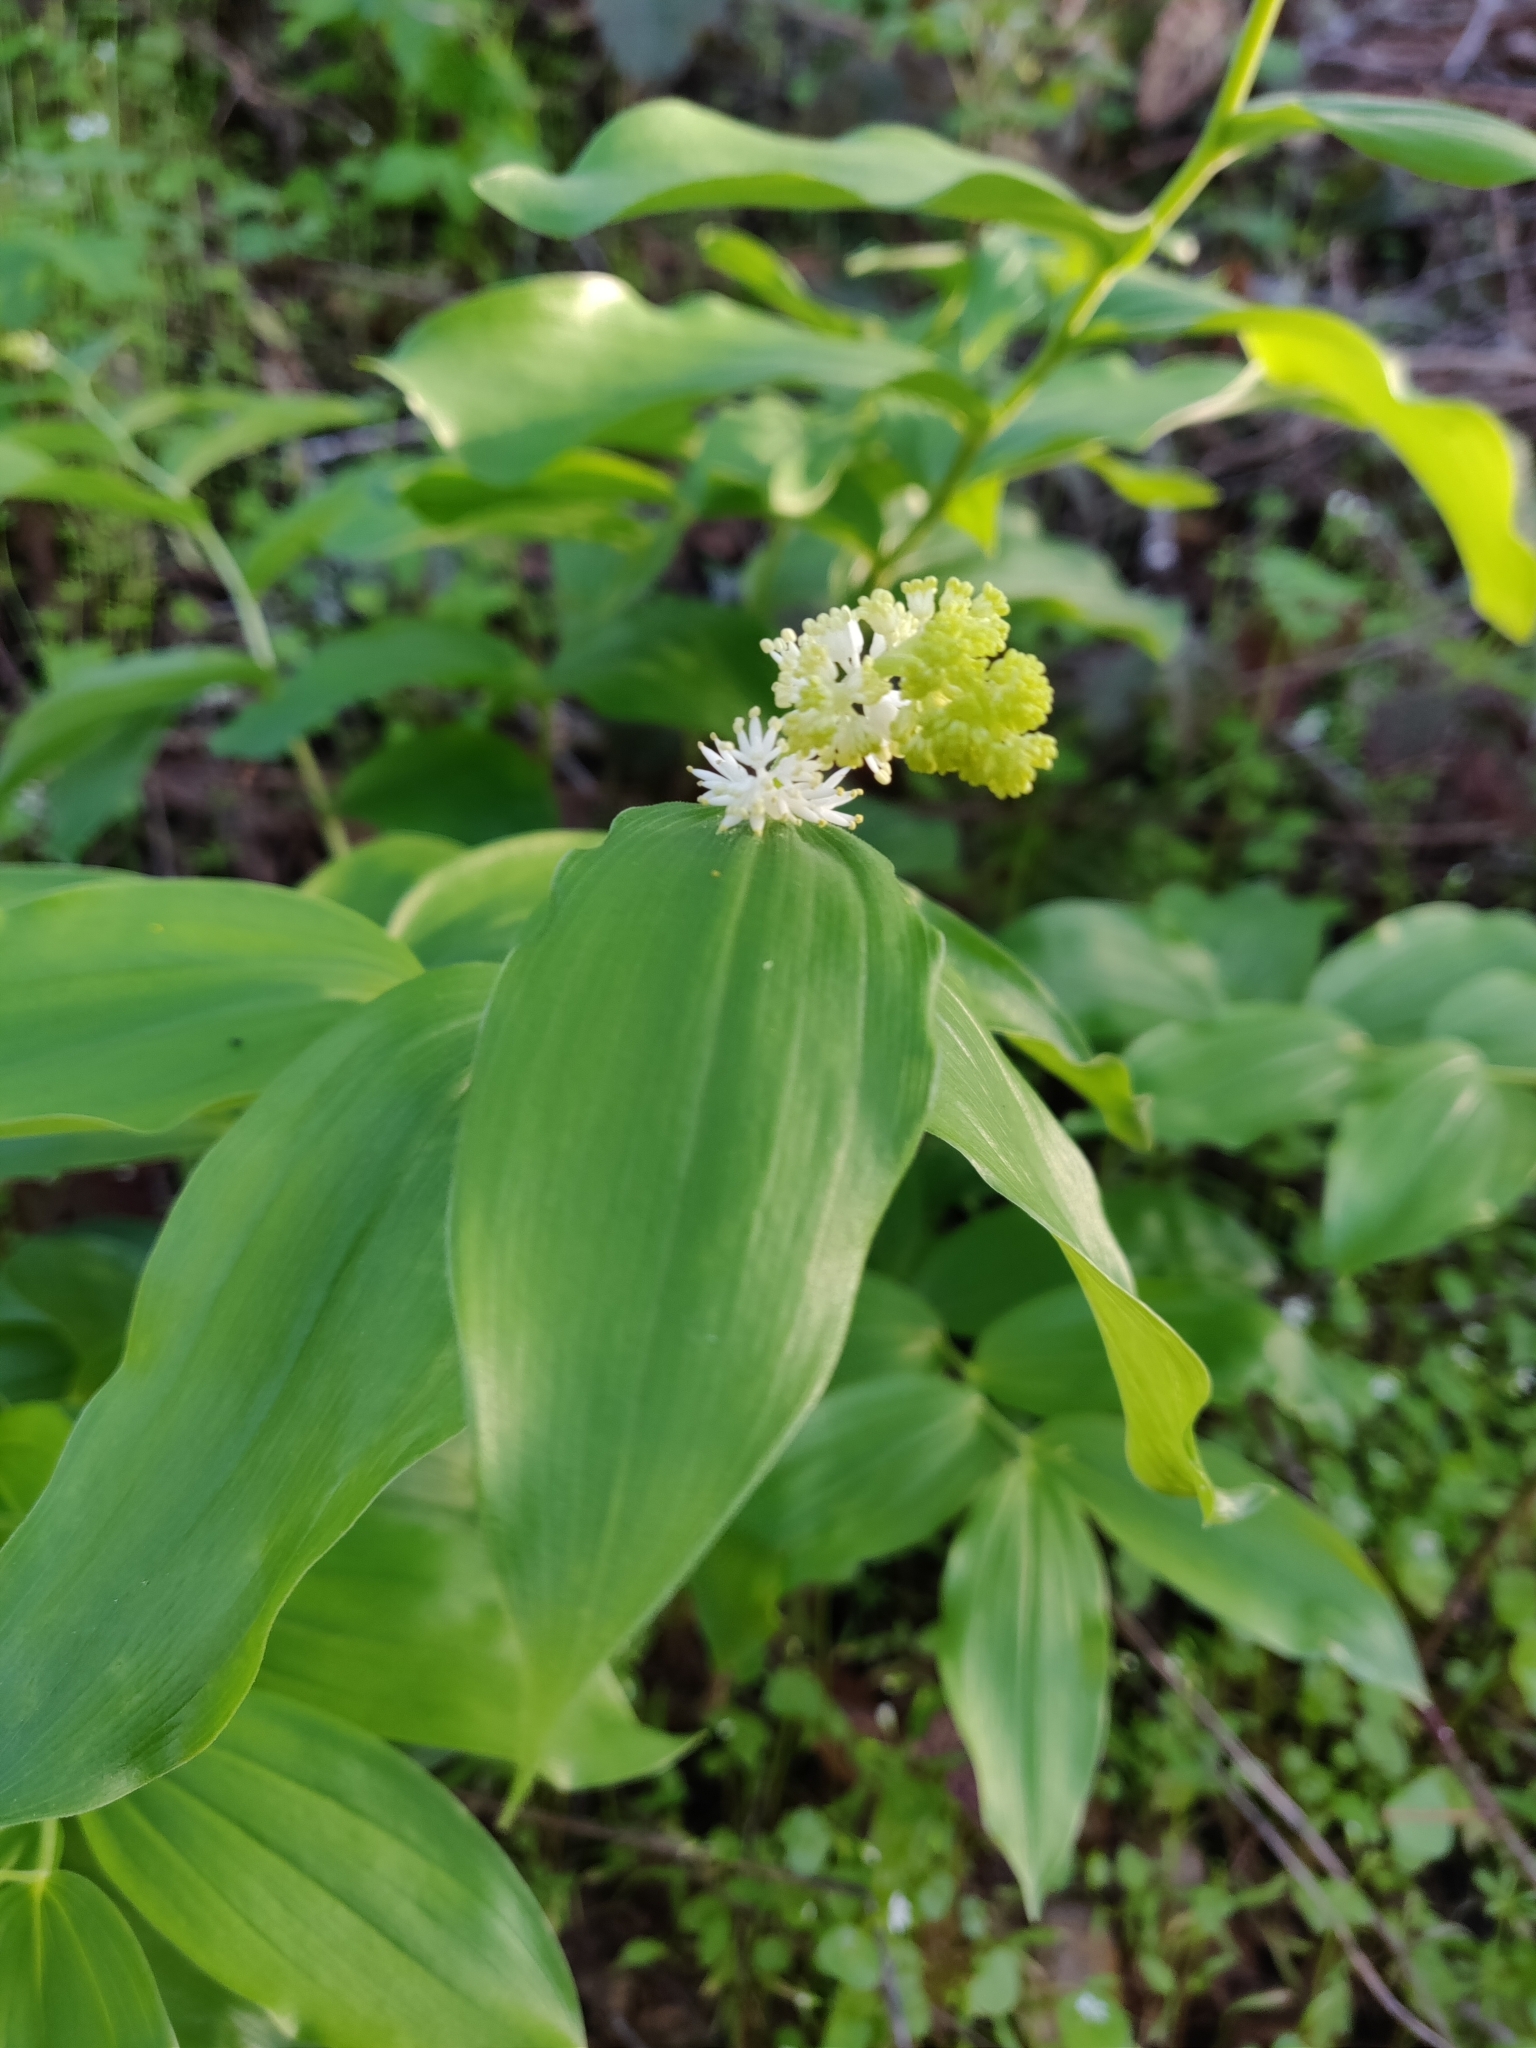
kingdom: Plantae
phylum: Tracheophyta
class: Liliopsida
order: Asparagales
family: Asparagaceae
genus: Maianthemum
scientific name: Maianthemum racemosum
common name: False spikenard
